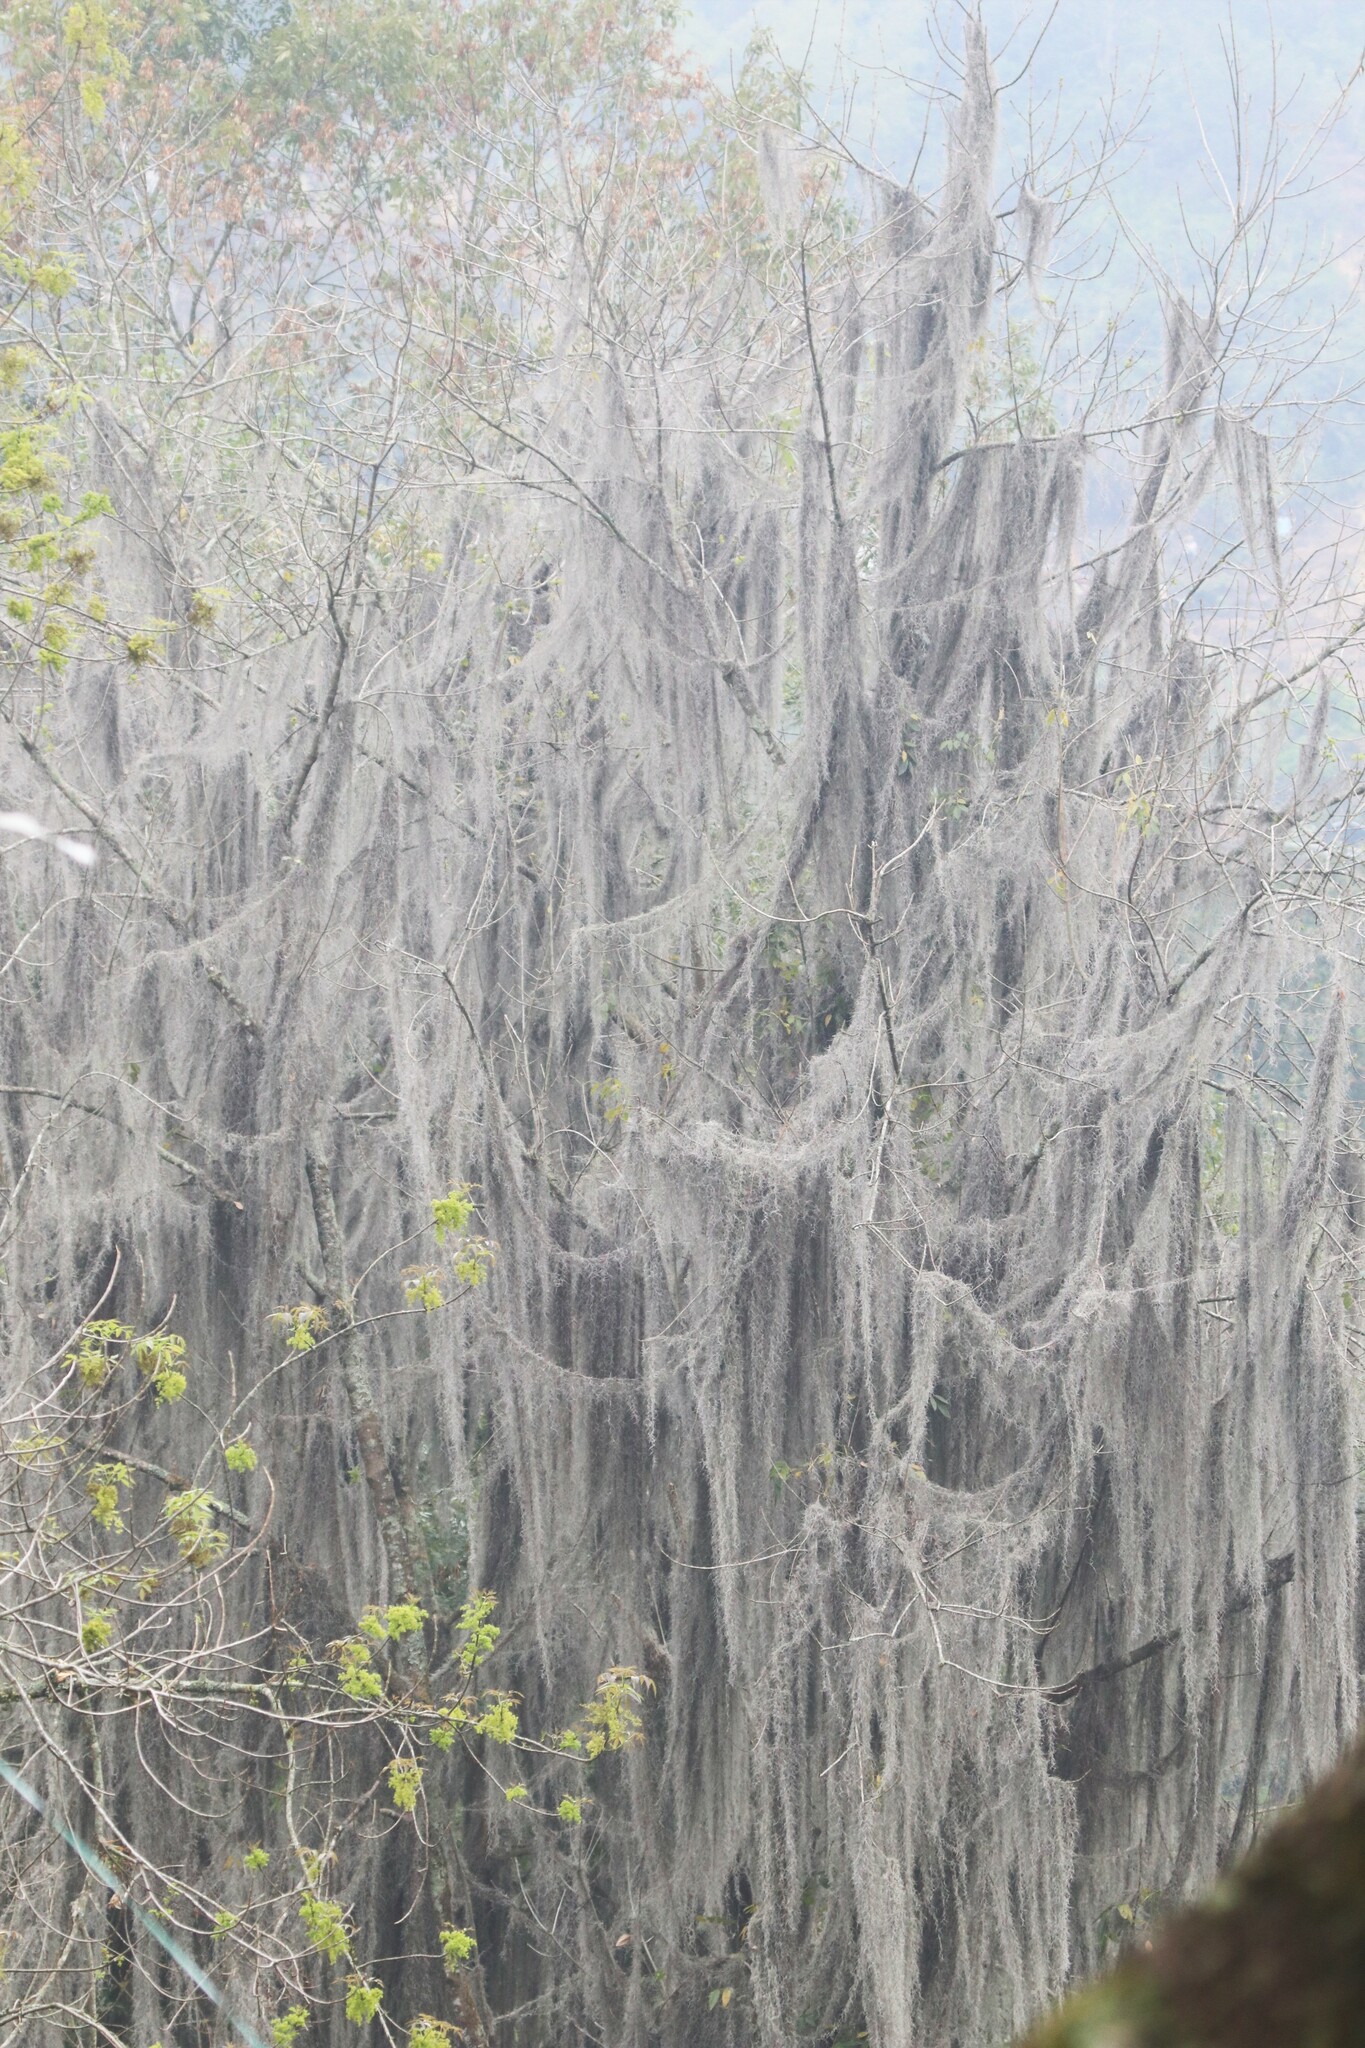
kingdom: Plantae
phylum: Tracheophyta
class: Liliopsida
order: Poales
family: Bromeliaceae
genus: Tillandsia
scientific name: Tillandsia usneoides
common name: Spanish moss
